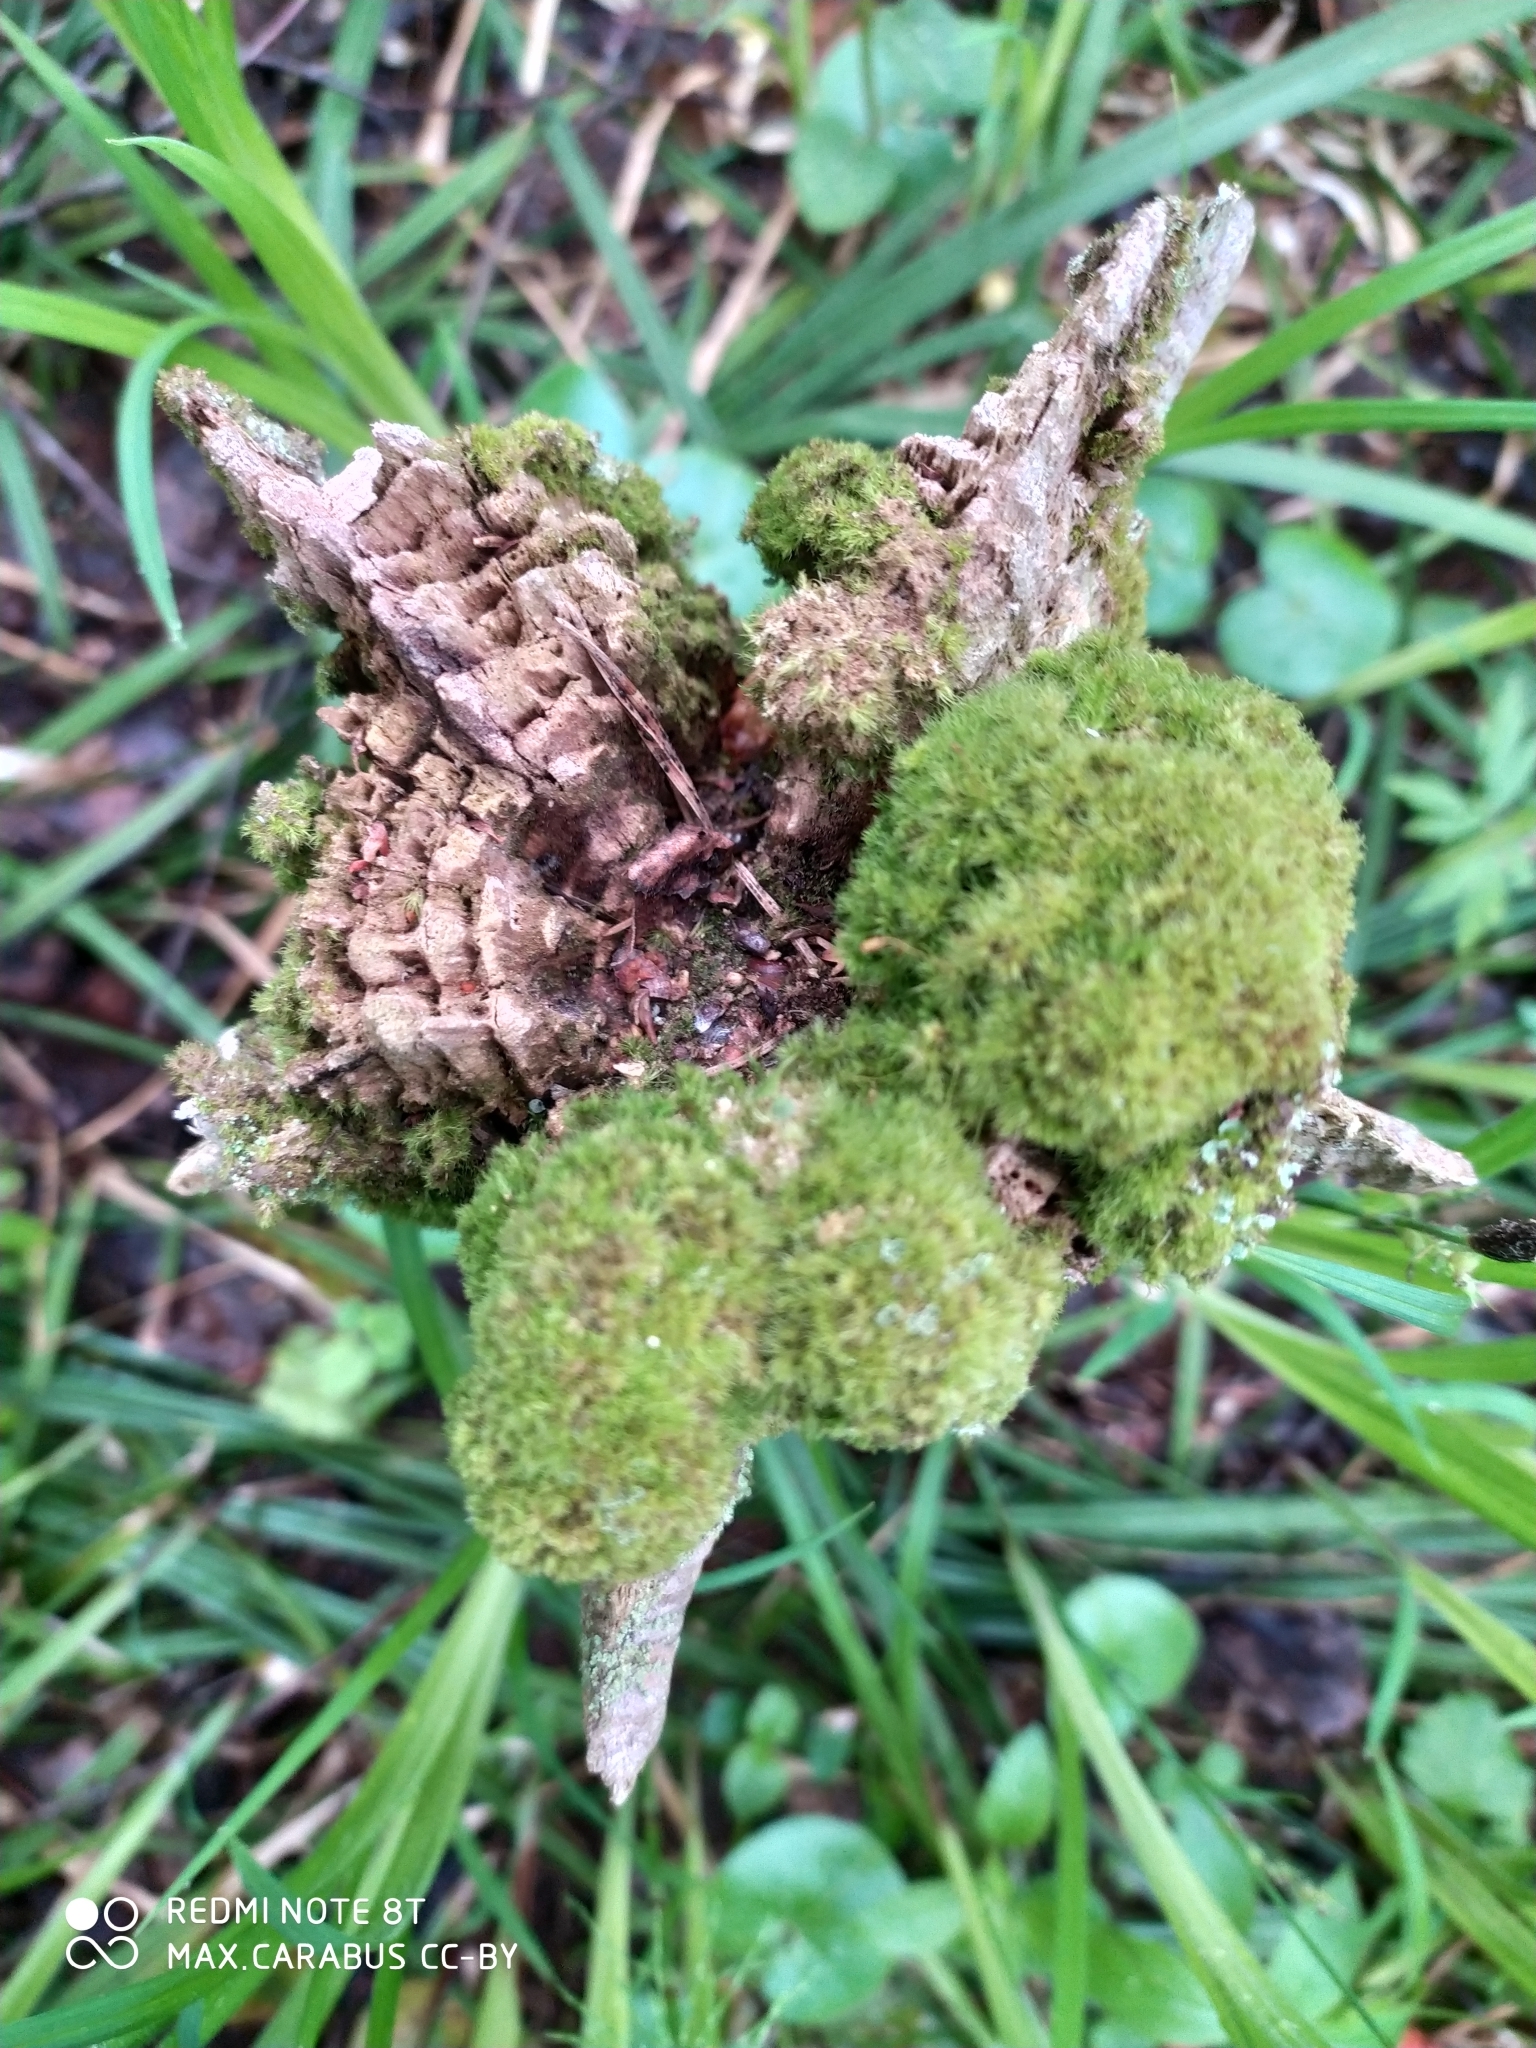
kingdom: Plantae
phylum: Tracheophyta
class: Pinopsida
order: Pinales
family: Pinaceae
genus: Pinus
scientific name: Pinus sylvestris
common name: Scots pine
